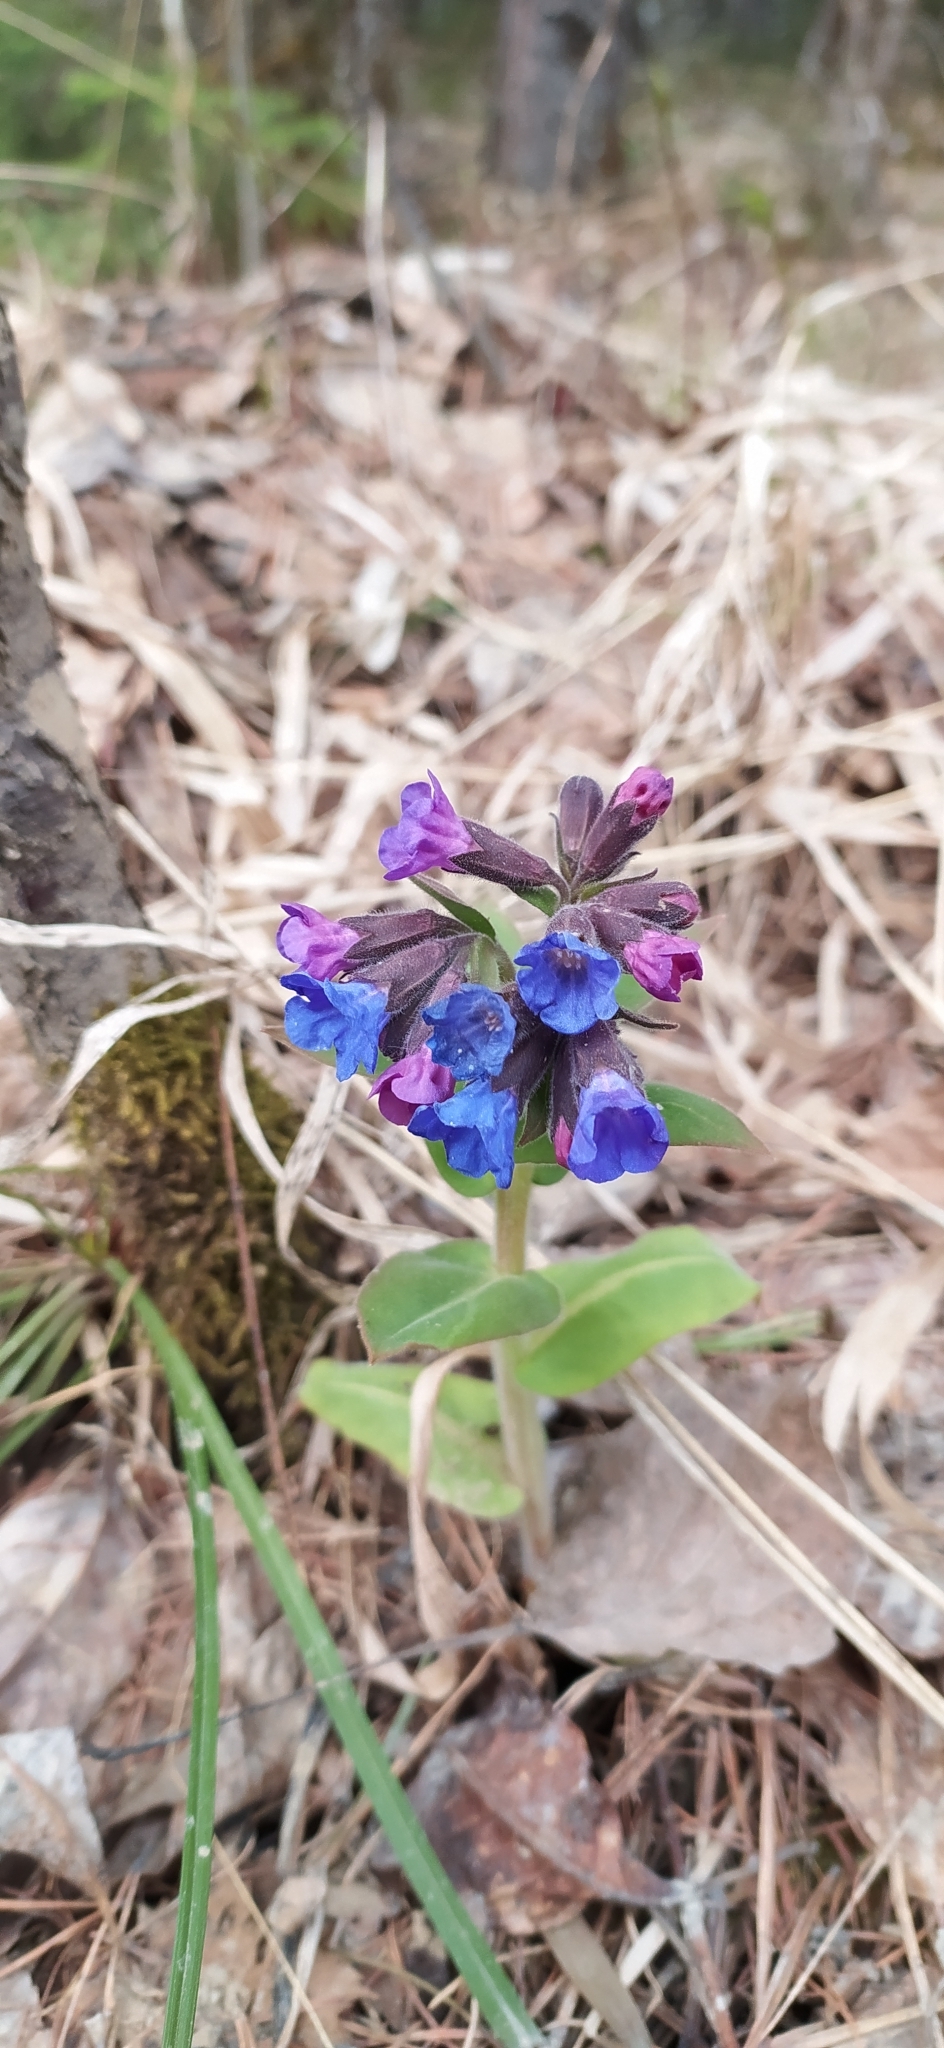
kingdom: Plantae
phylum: Tracheophyta
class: Magnoliopsida
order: Boraginales
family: Boraginaceae
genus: Pulmonaria
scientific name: Pulmonaria mollis
